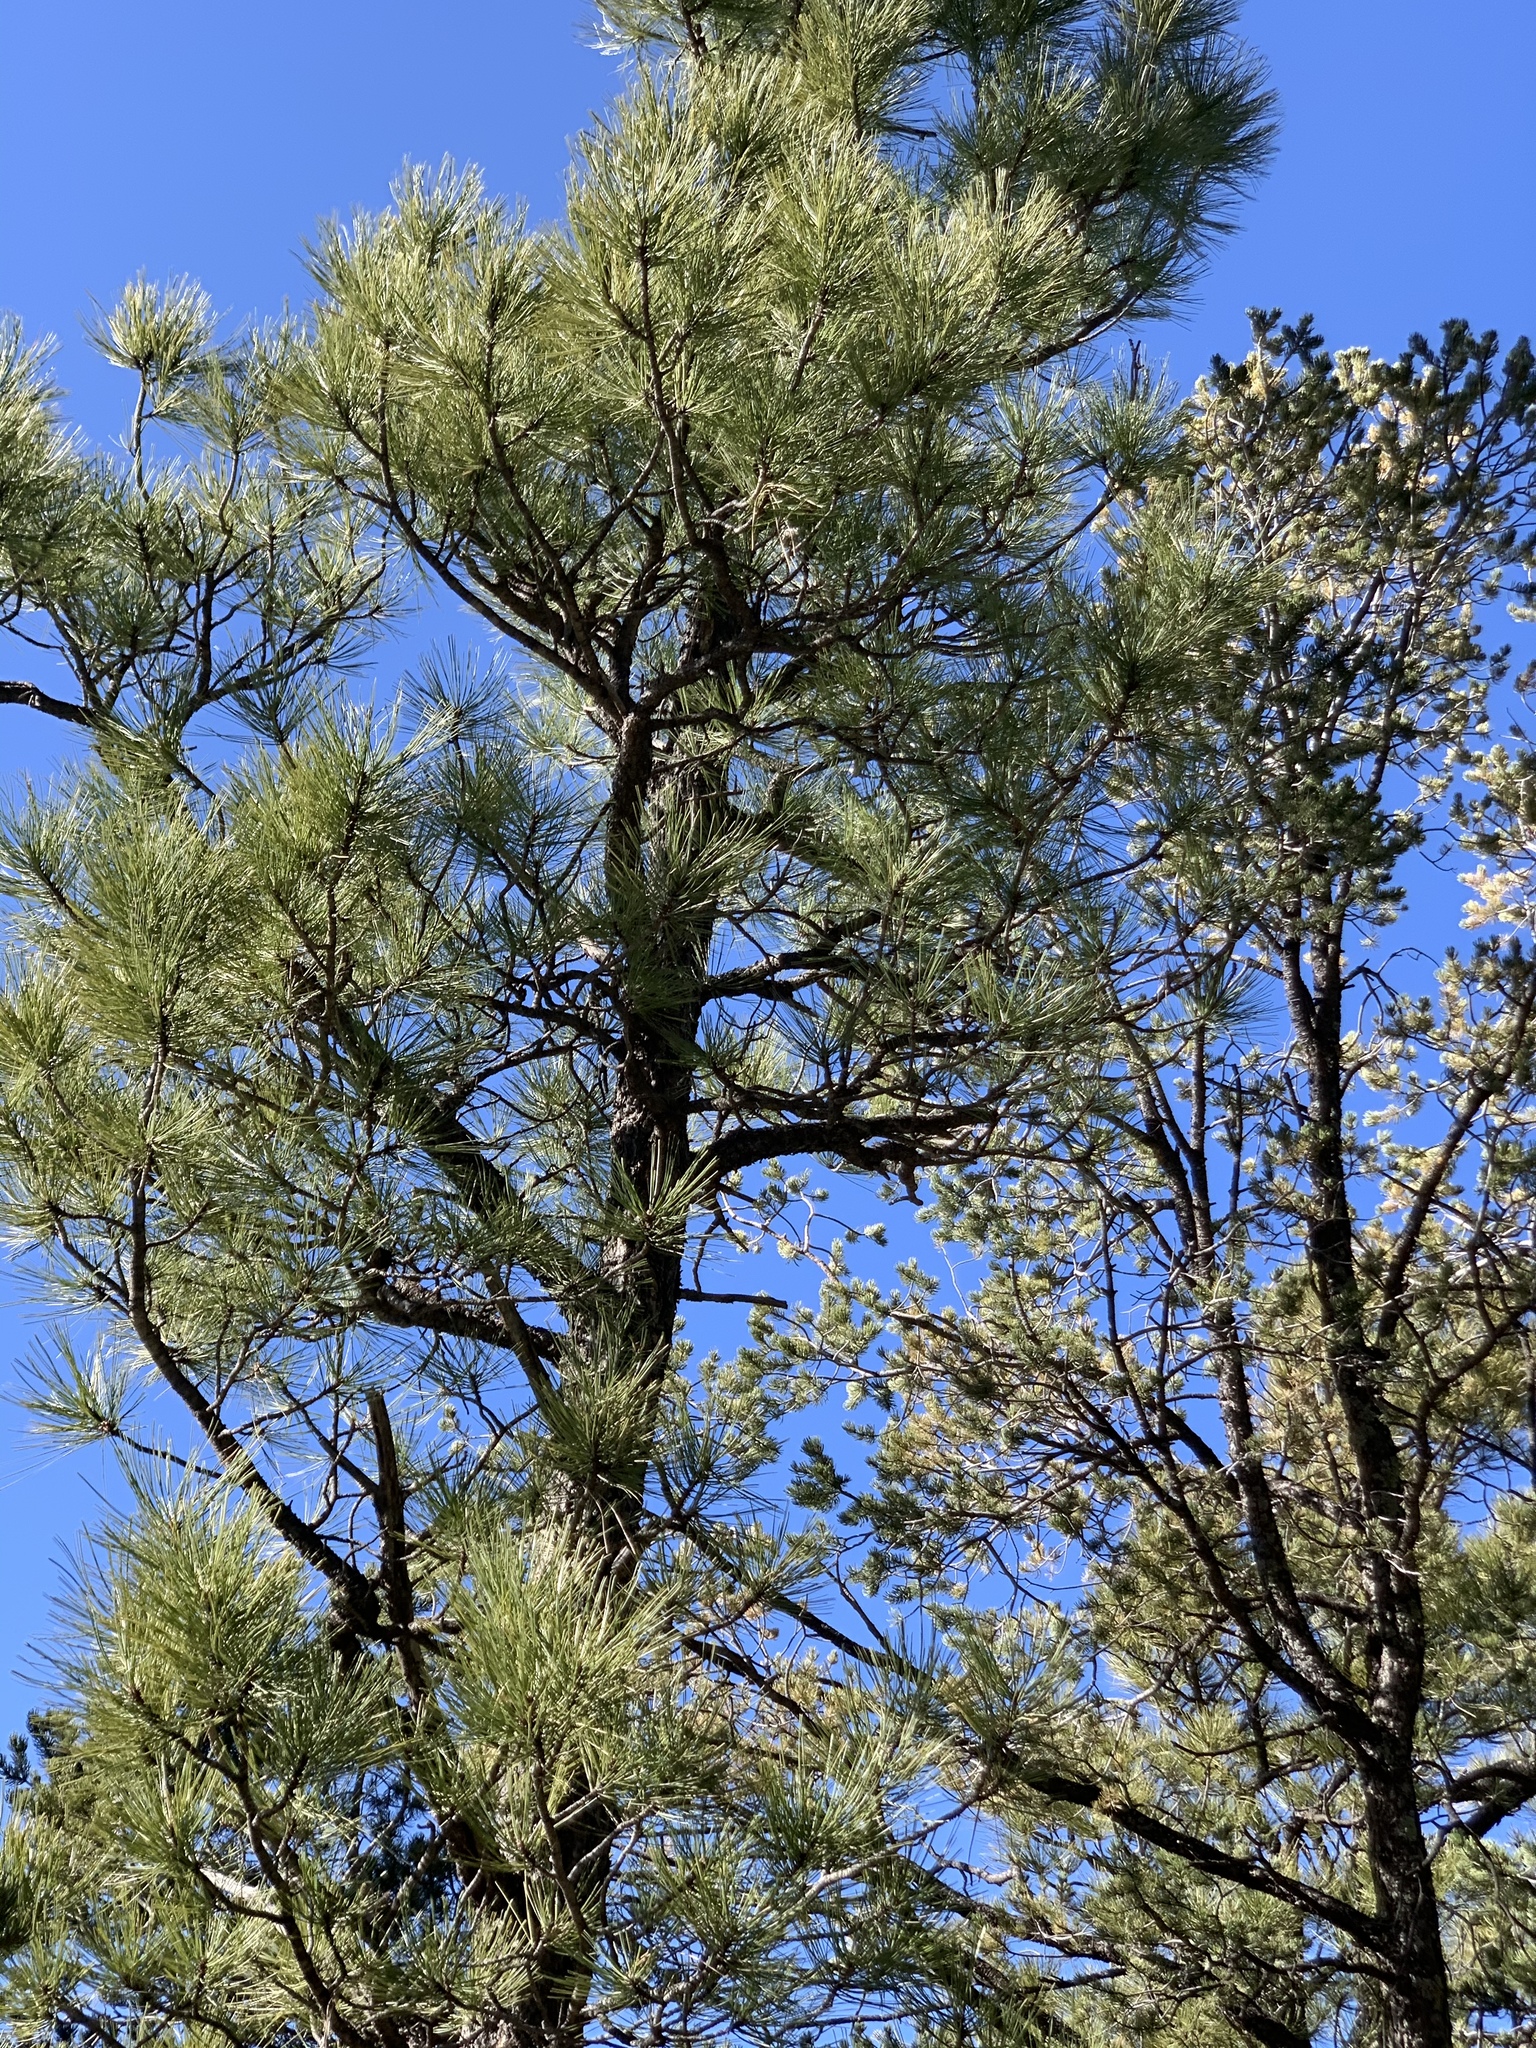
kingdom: Plantae
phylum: Tracheophyta
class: Pinopsida
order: Pinales
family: Pinaceae
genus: Pinus
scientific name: Pinus ponderosa
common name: Western yellow-pine
